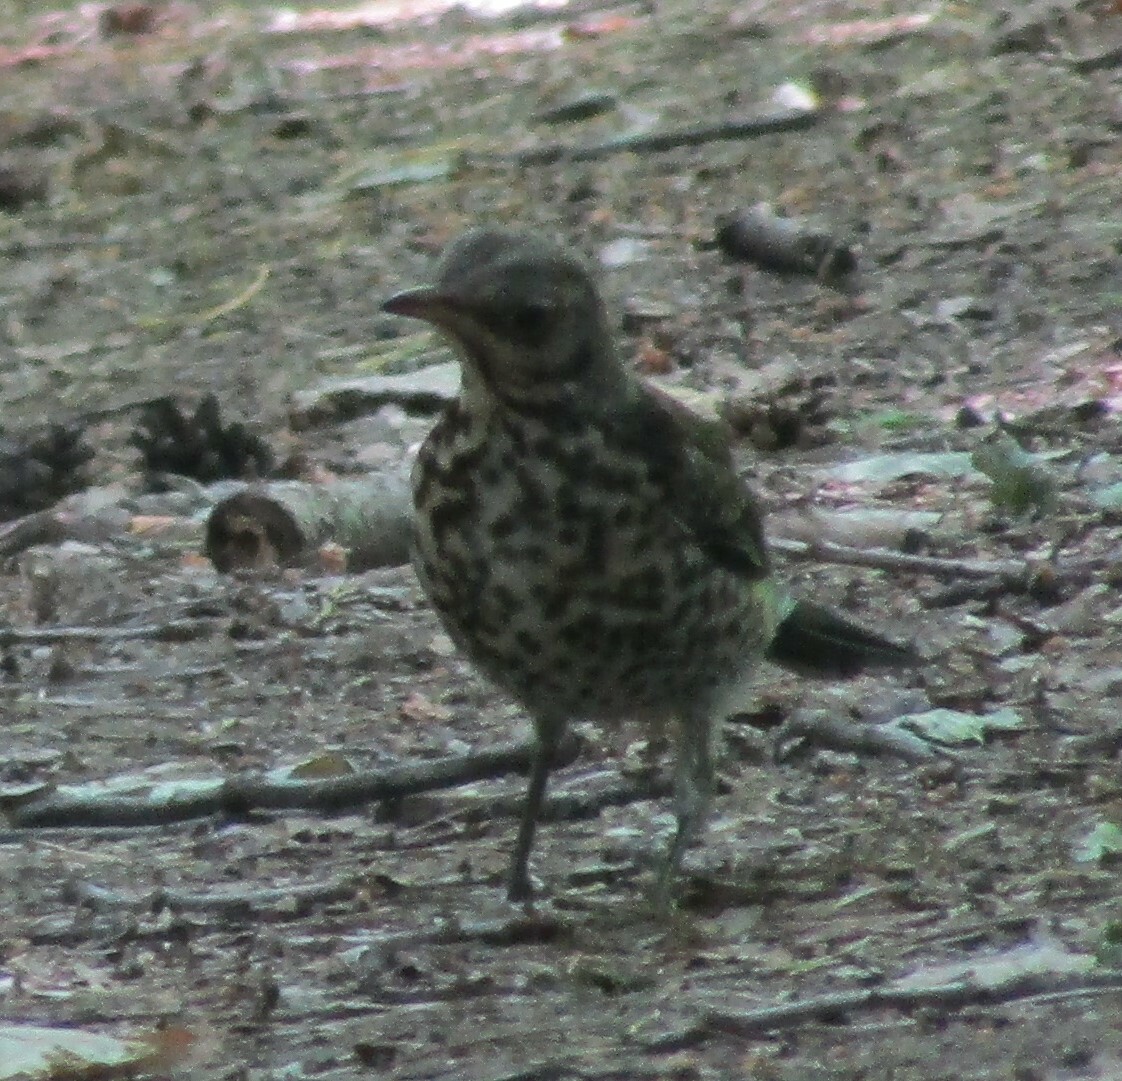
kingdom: Animalia
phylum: Chordata
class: Aves
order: Passeriformes
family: Turdidae
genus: Turdus
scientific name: Turdus pilaris
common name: Fieldfare
